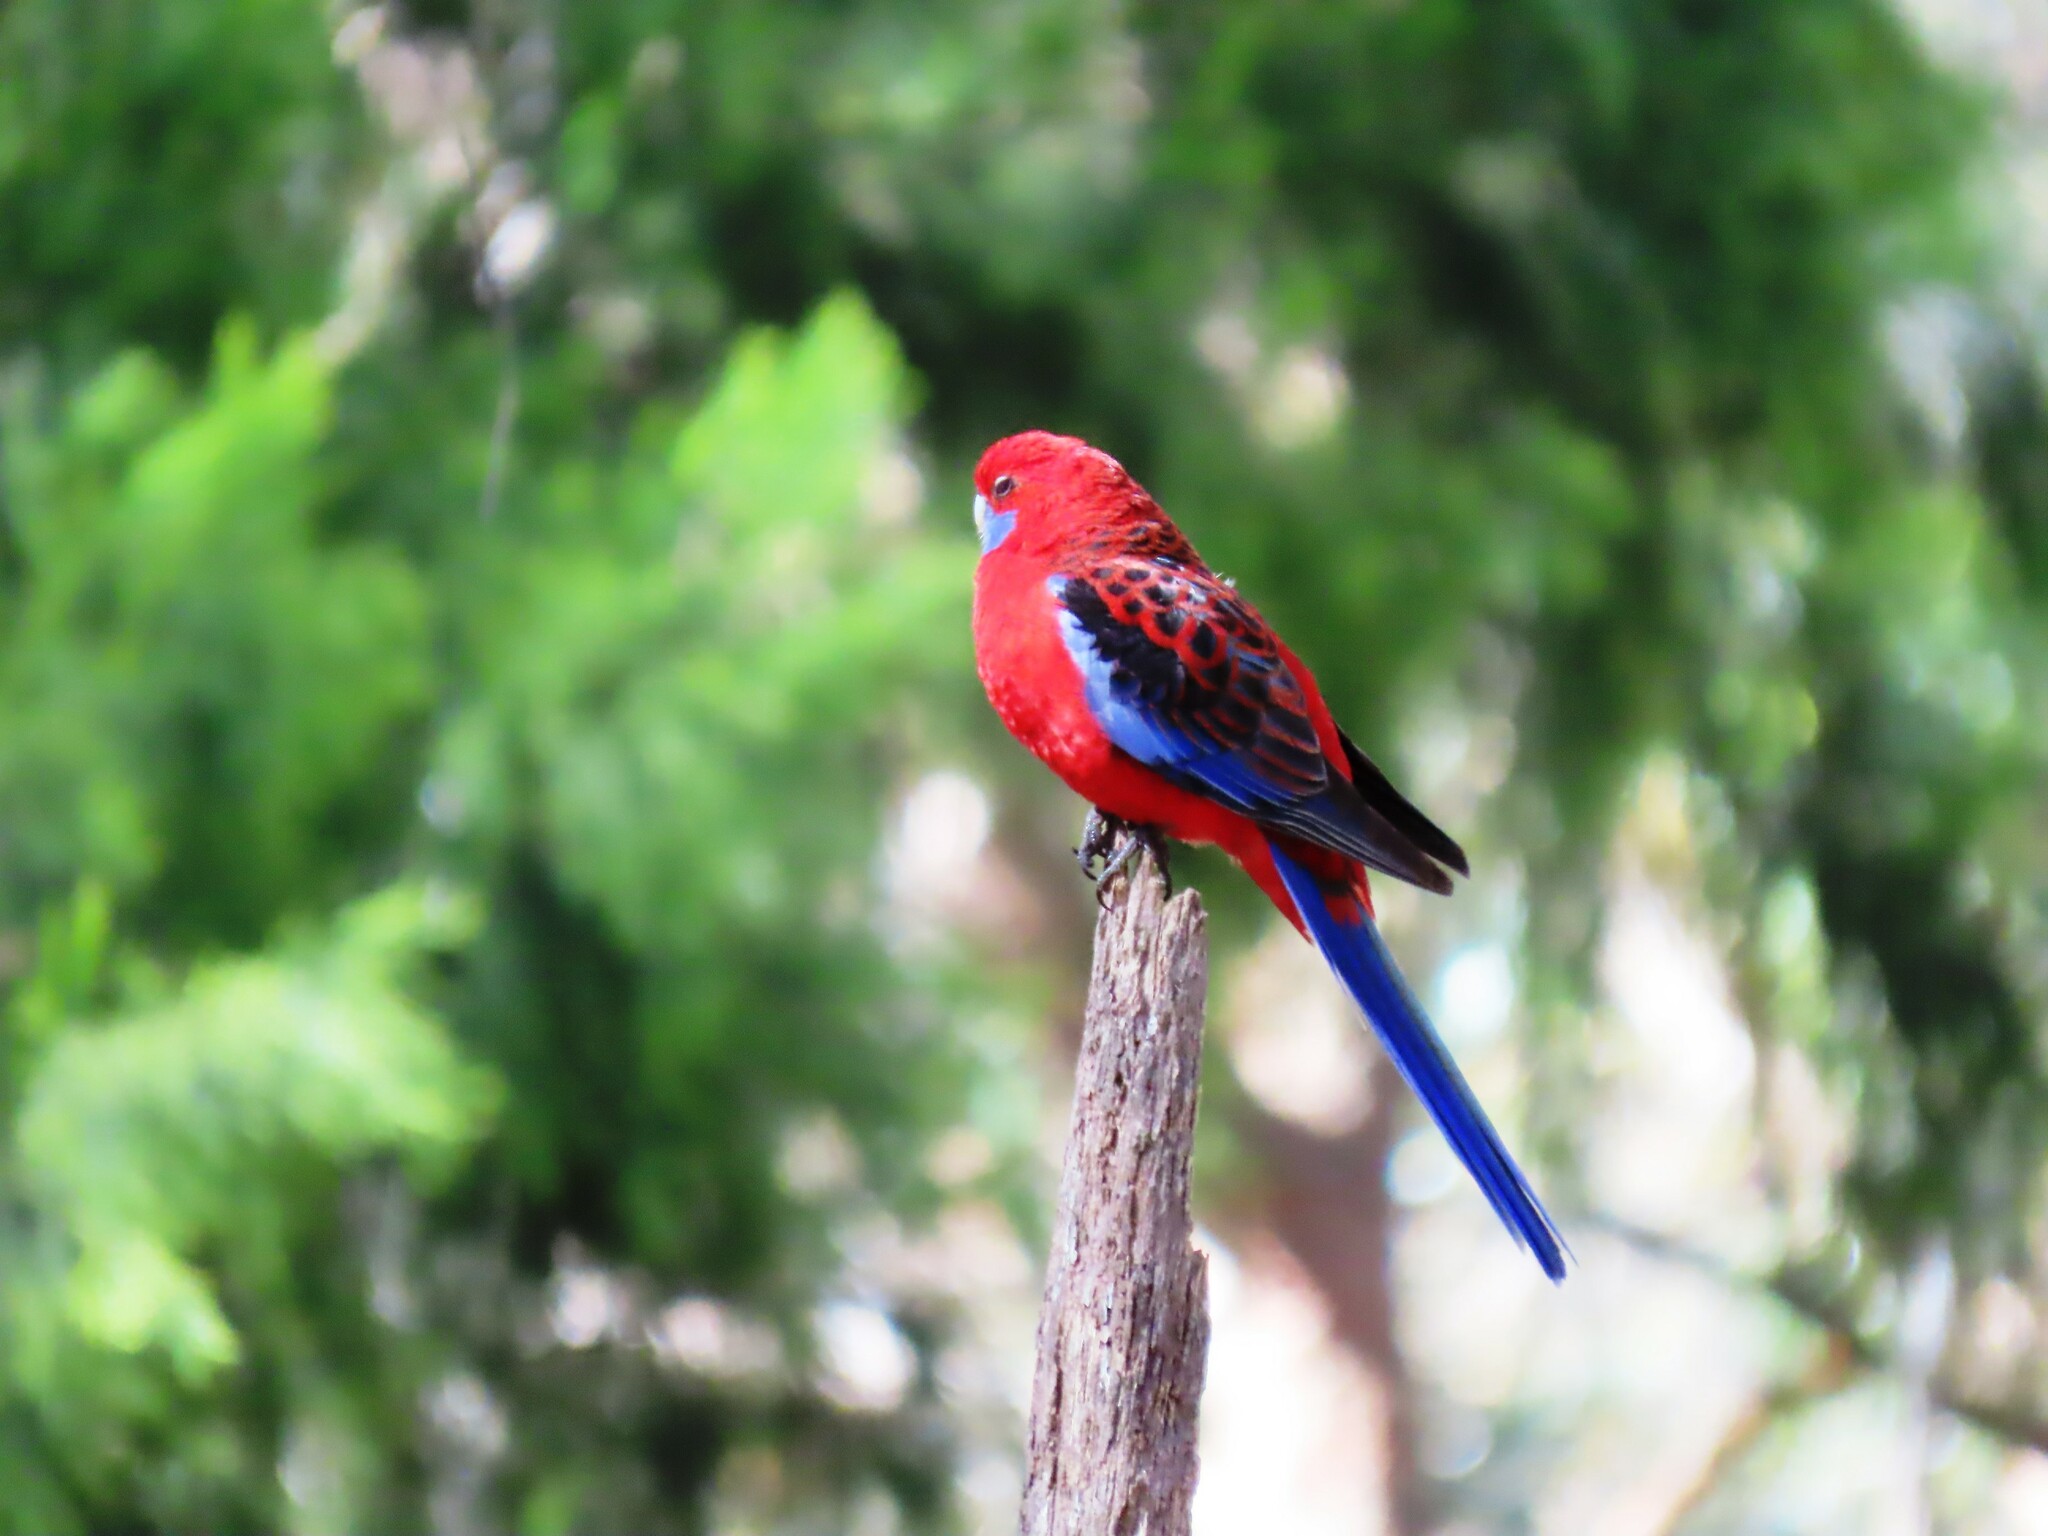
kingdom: Animalia
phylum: Chordata
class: Aves
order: Psittaciformes
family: Psittacidae
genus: Platycercus
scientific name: Platycercus elegans
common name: Crimson rosella
